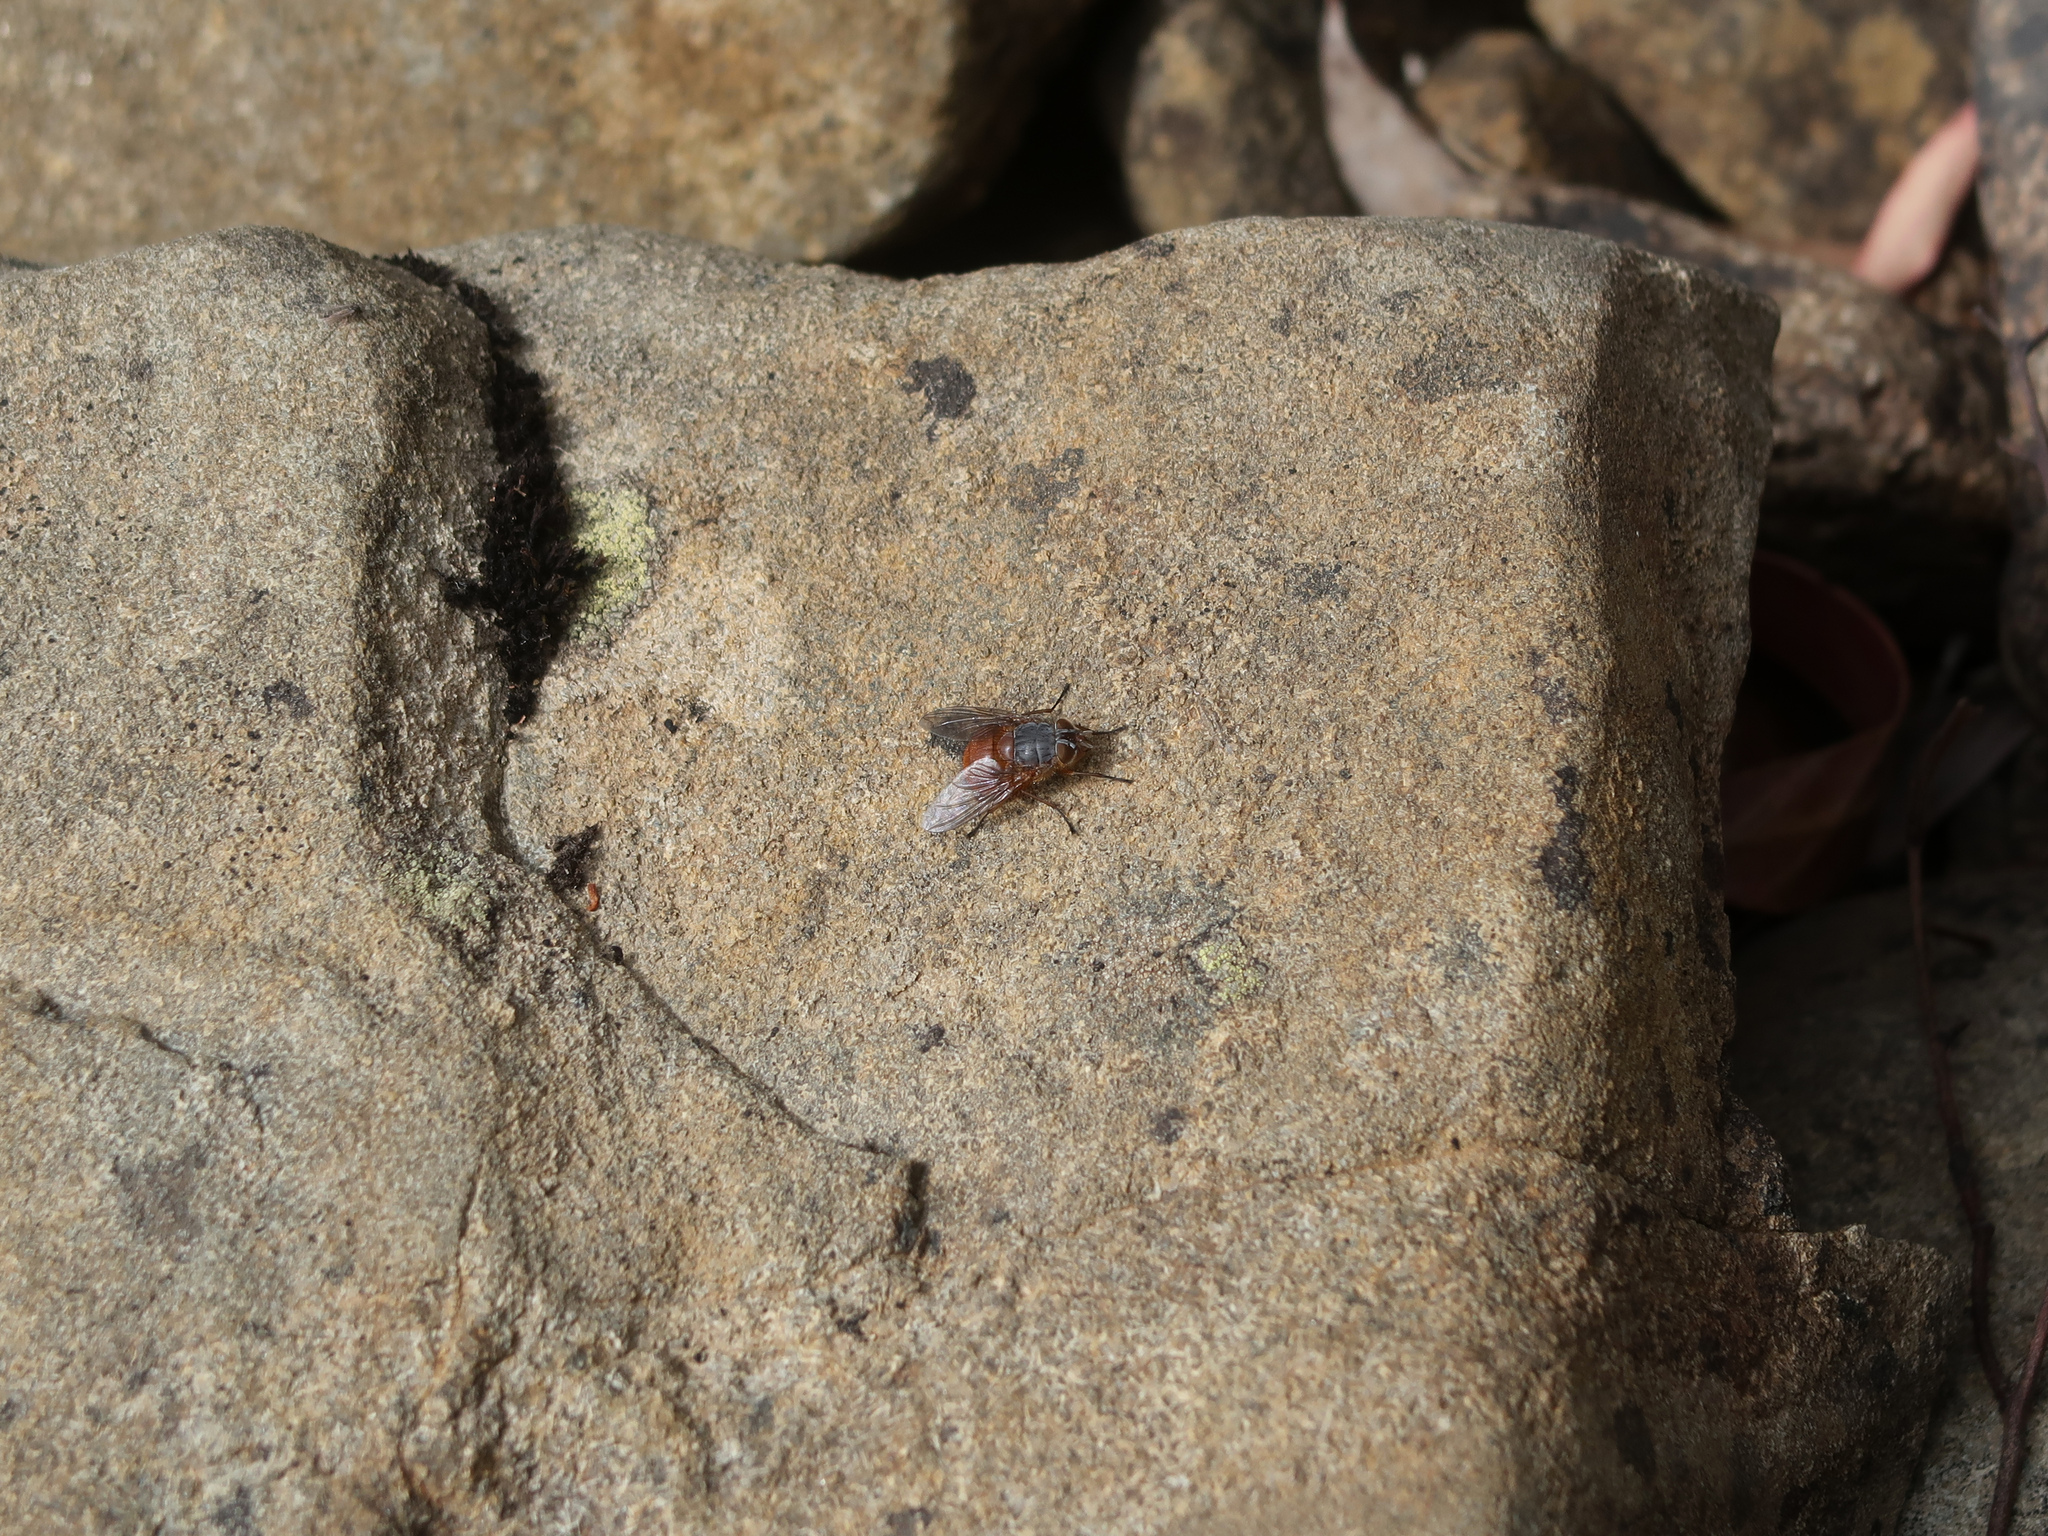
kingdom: Animalia
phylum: Arthropoda
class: Insecta
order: Diptera
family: Calliphoridae
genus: Calliphora
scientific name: Calliphora nigrithorax
